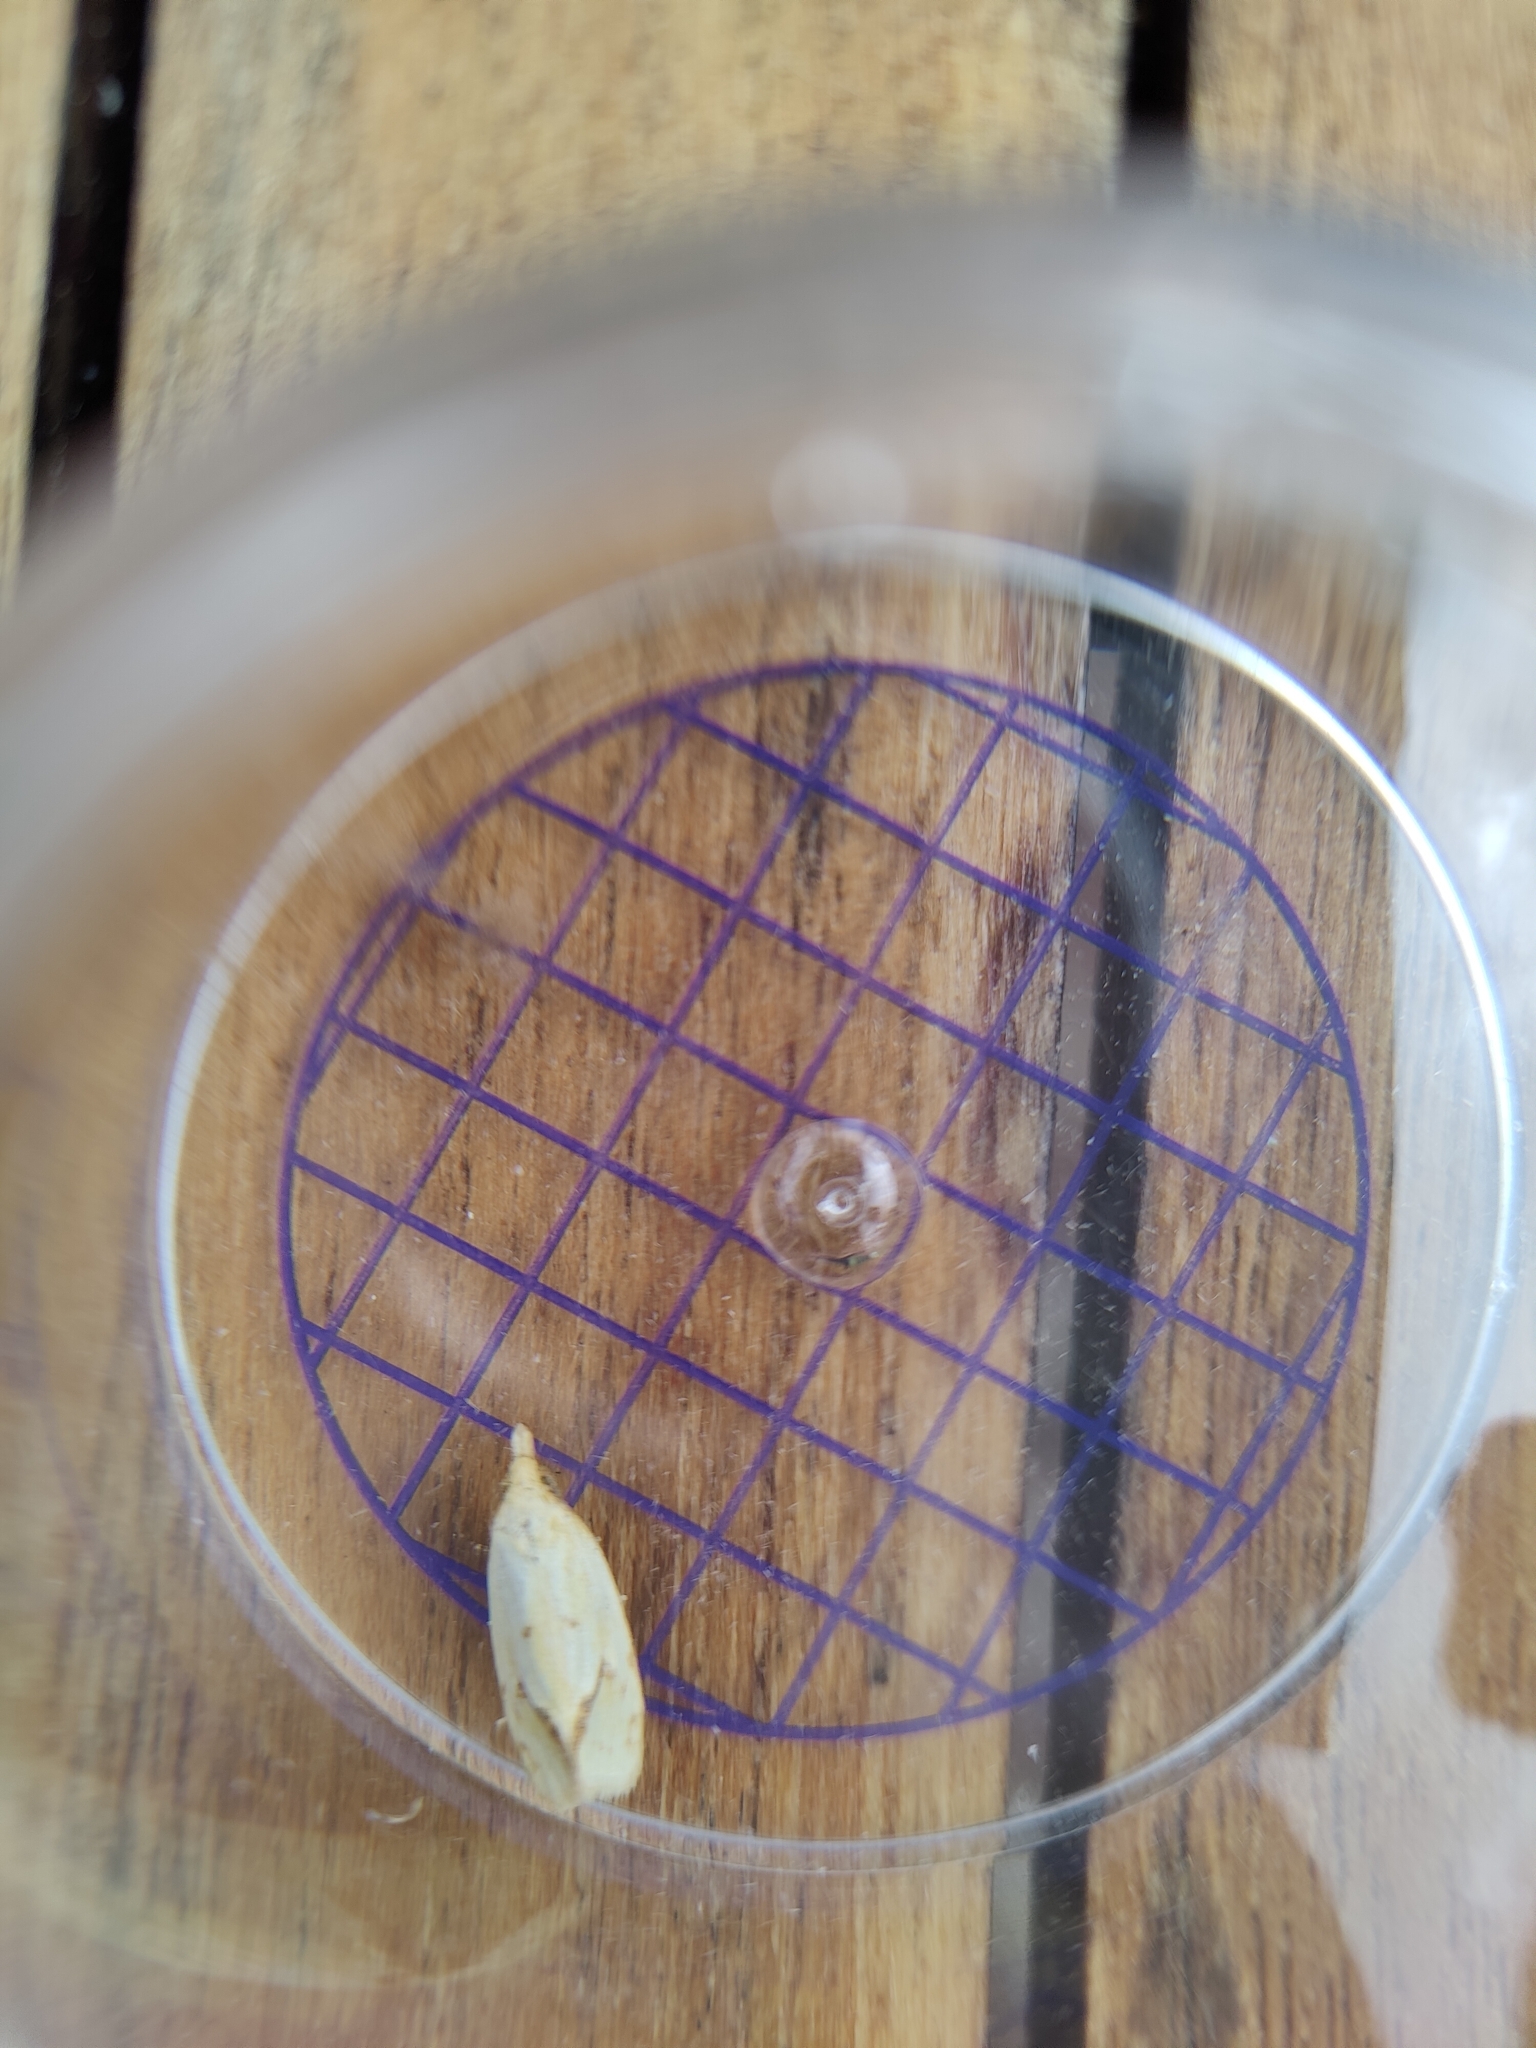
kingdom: Animalia
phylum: Arthropoda
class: Insecta
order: Lepidoptera
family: Tortricidae
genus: Agapeta
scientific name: Agapeta hamana
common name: Common yellow conch
